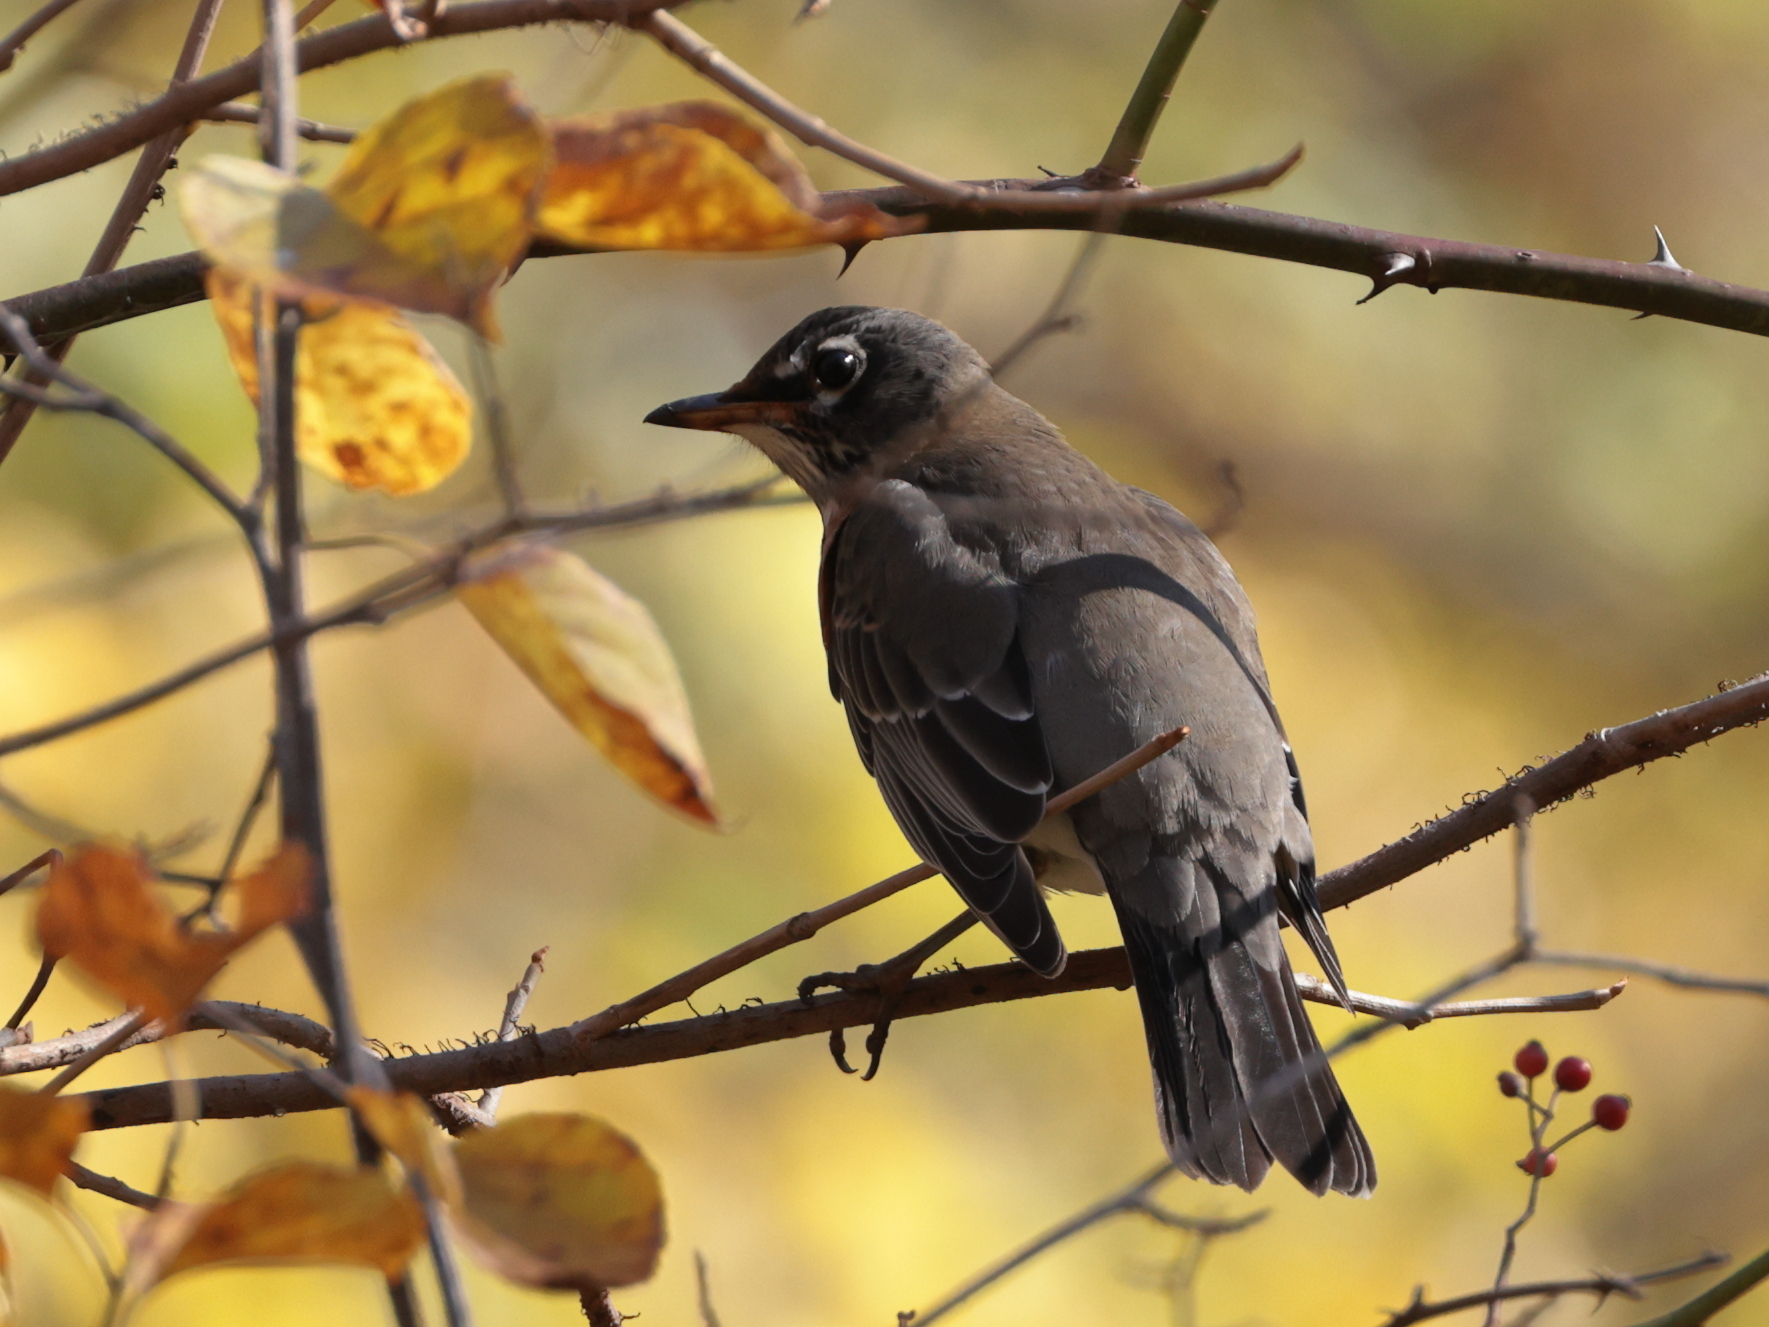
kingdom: Animalia
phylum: Chordata
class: Aves
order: Passeriformes
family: Turdidae
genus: Turdus
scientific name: Turdus migratorius
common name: American robin
